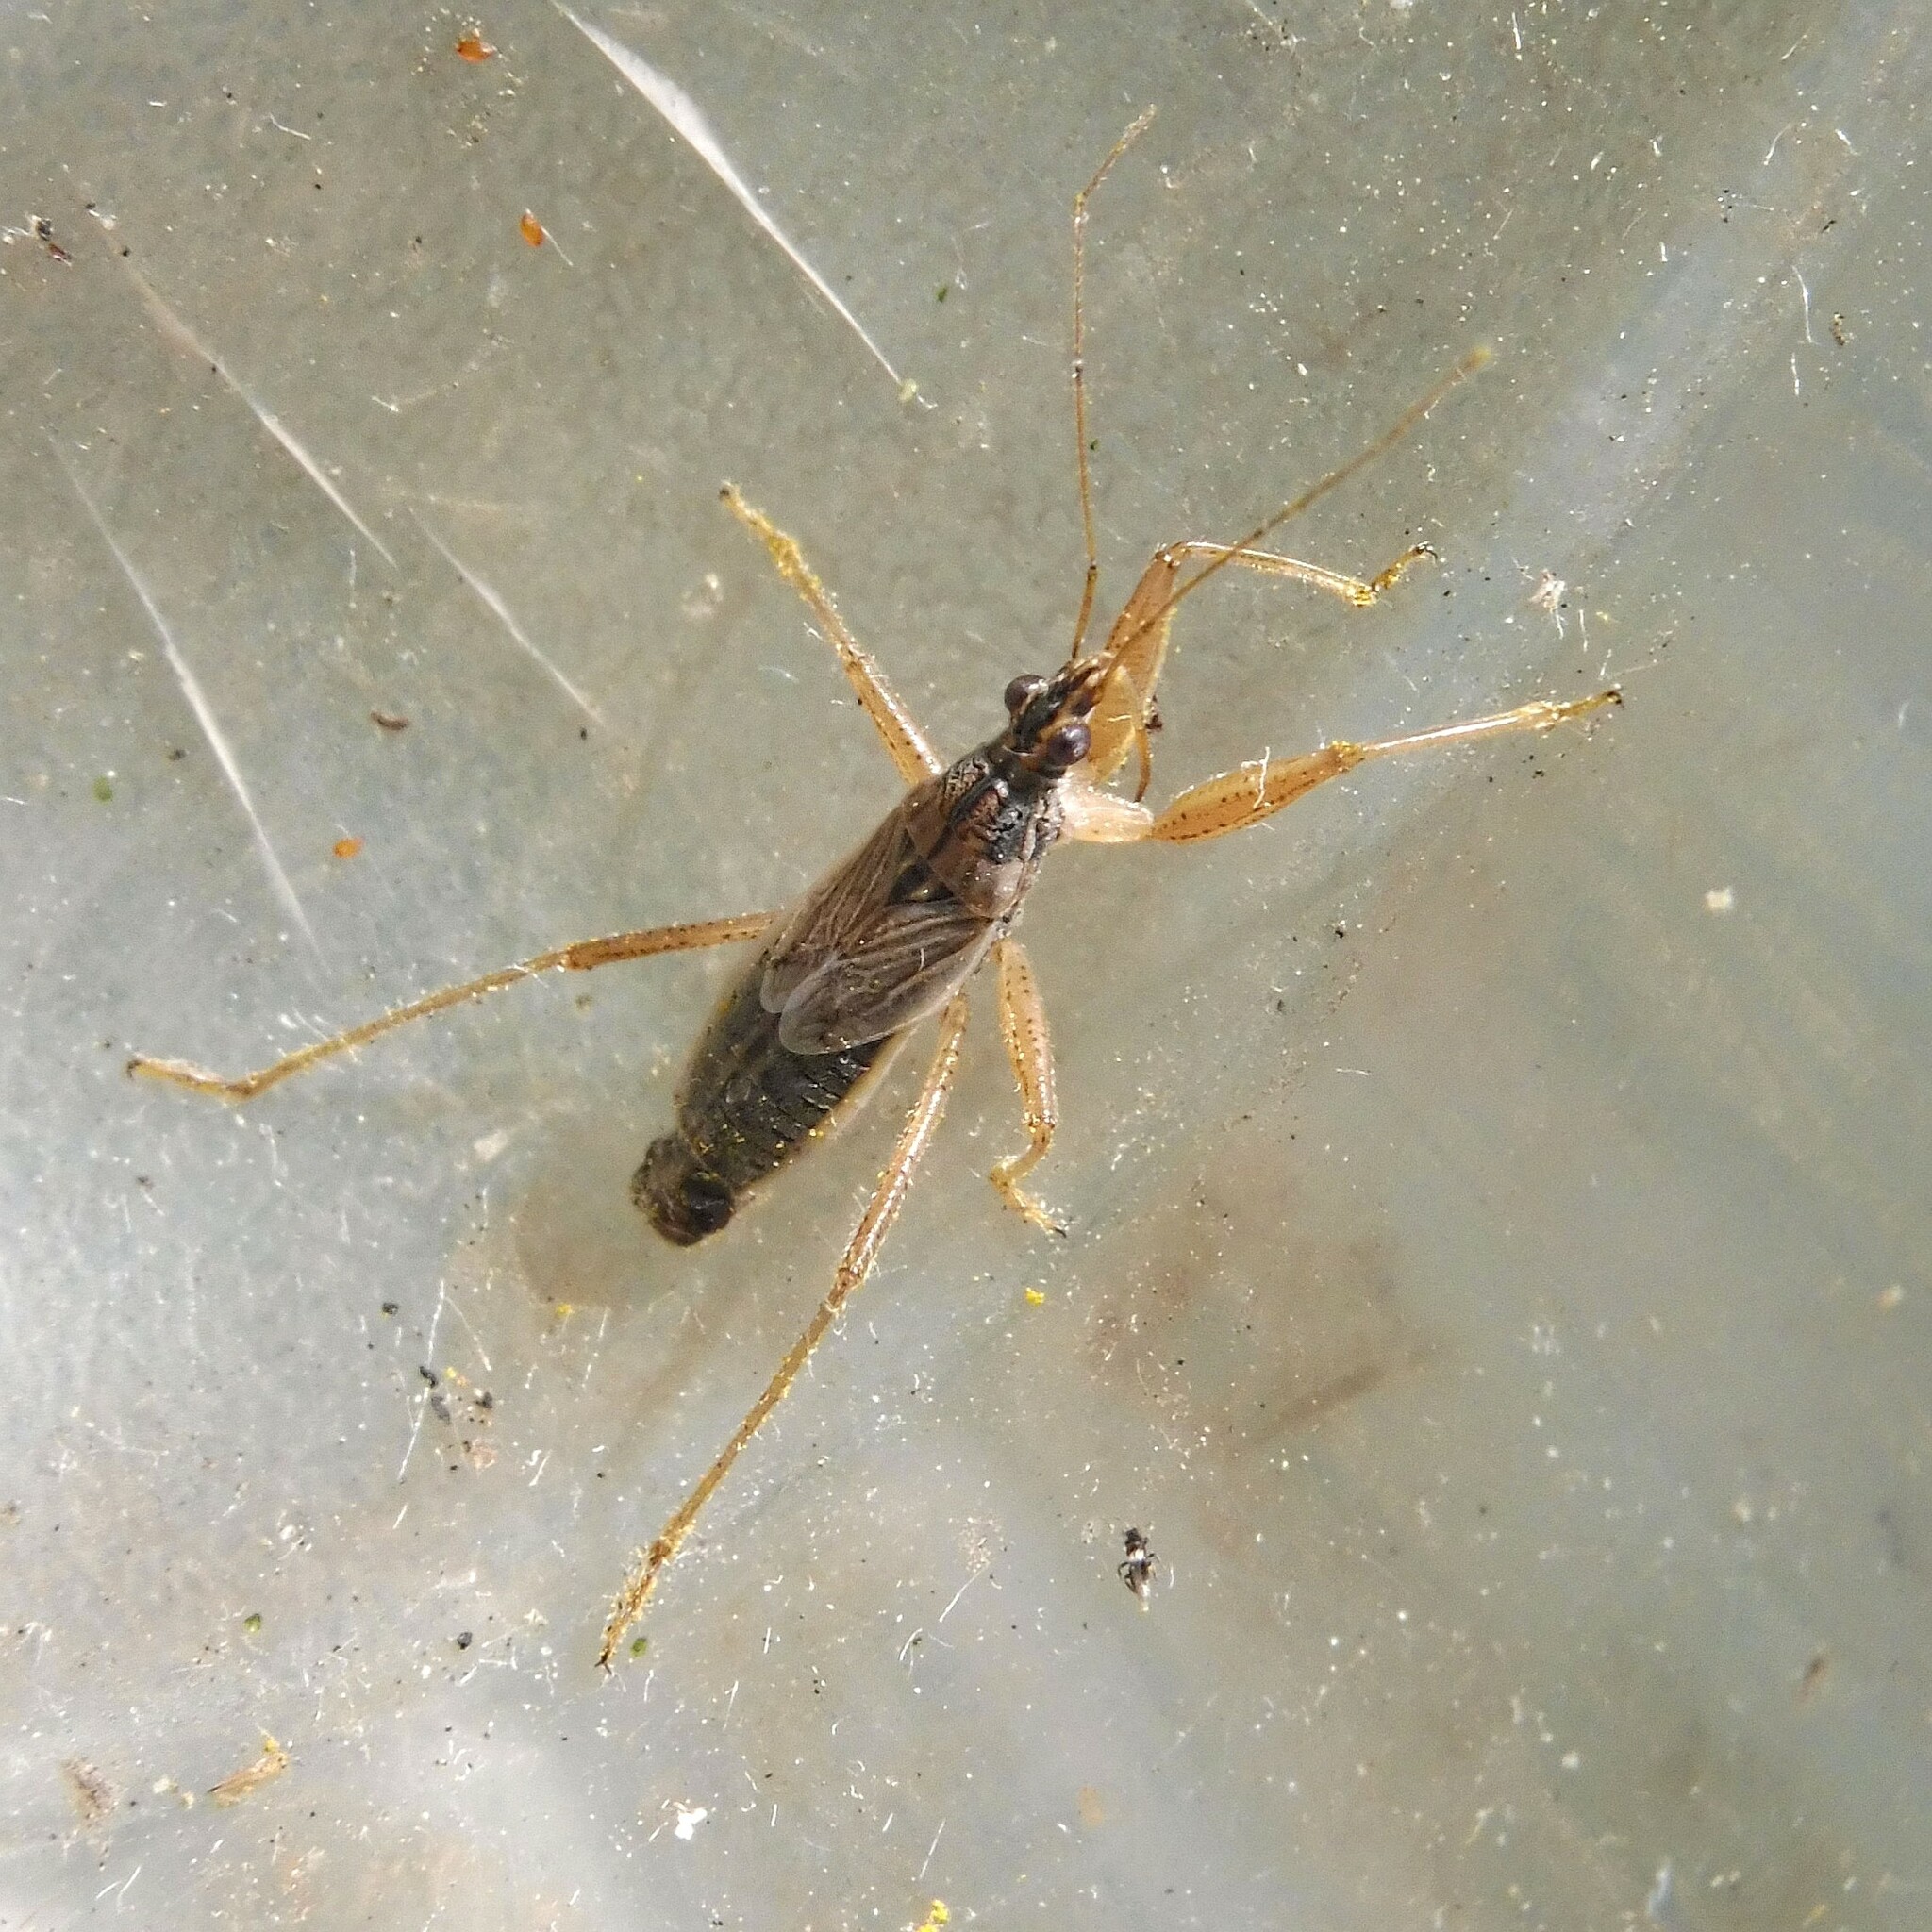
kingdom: Animalia
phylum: Arthropoda
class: Insecta
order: Hemiptera
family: Nabidae
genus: Nabis
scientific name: Nabis flavomarginatus
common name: Broad damselbug
